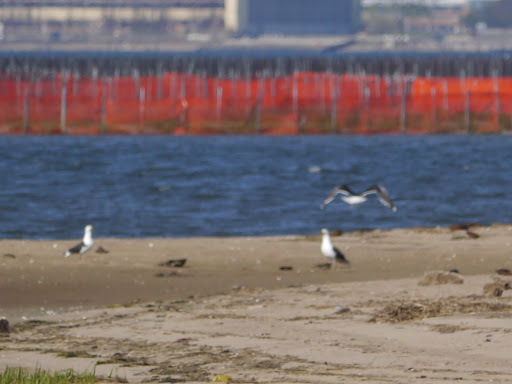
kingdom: Animalia
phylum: Chordata
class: Aves
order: Charadriiformes
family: Laridae
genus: Larus
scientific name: Larus marinus
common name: Great black-backed gull
